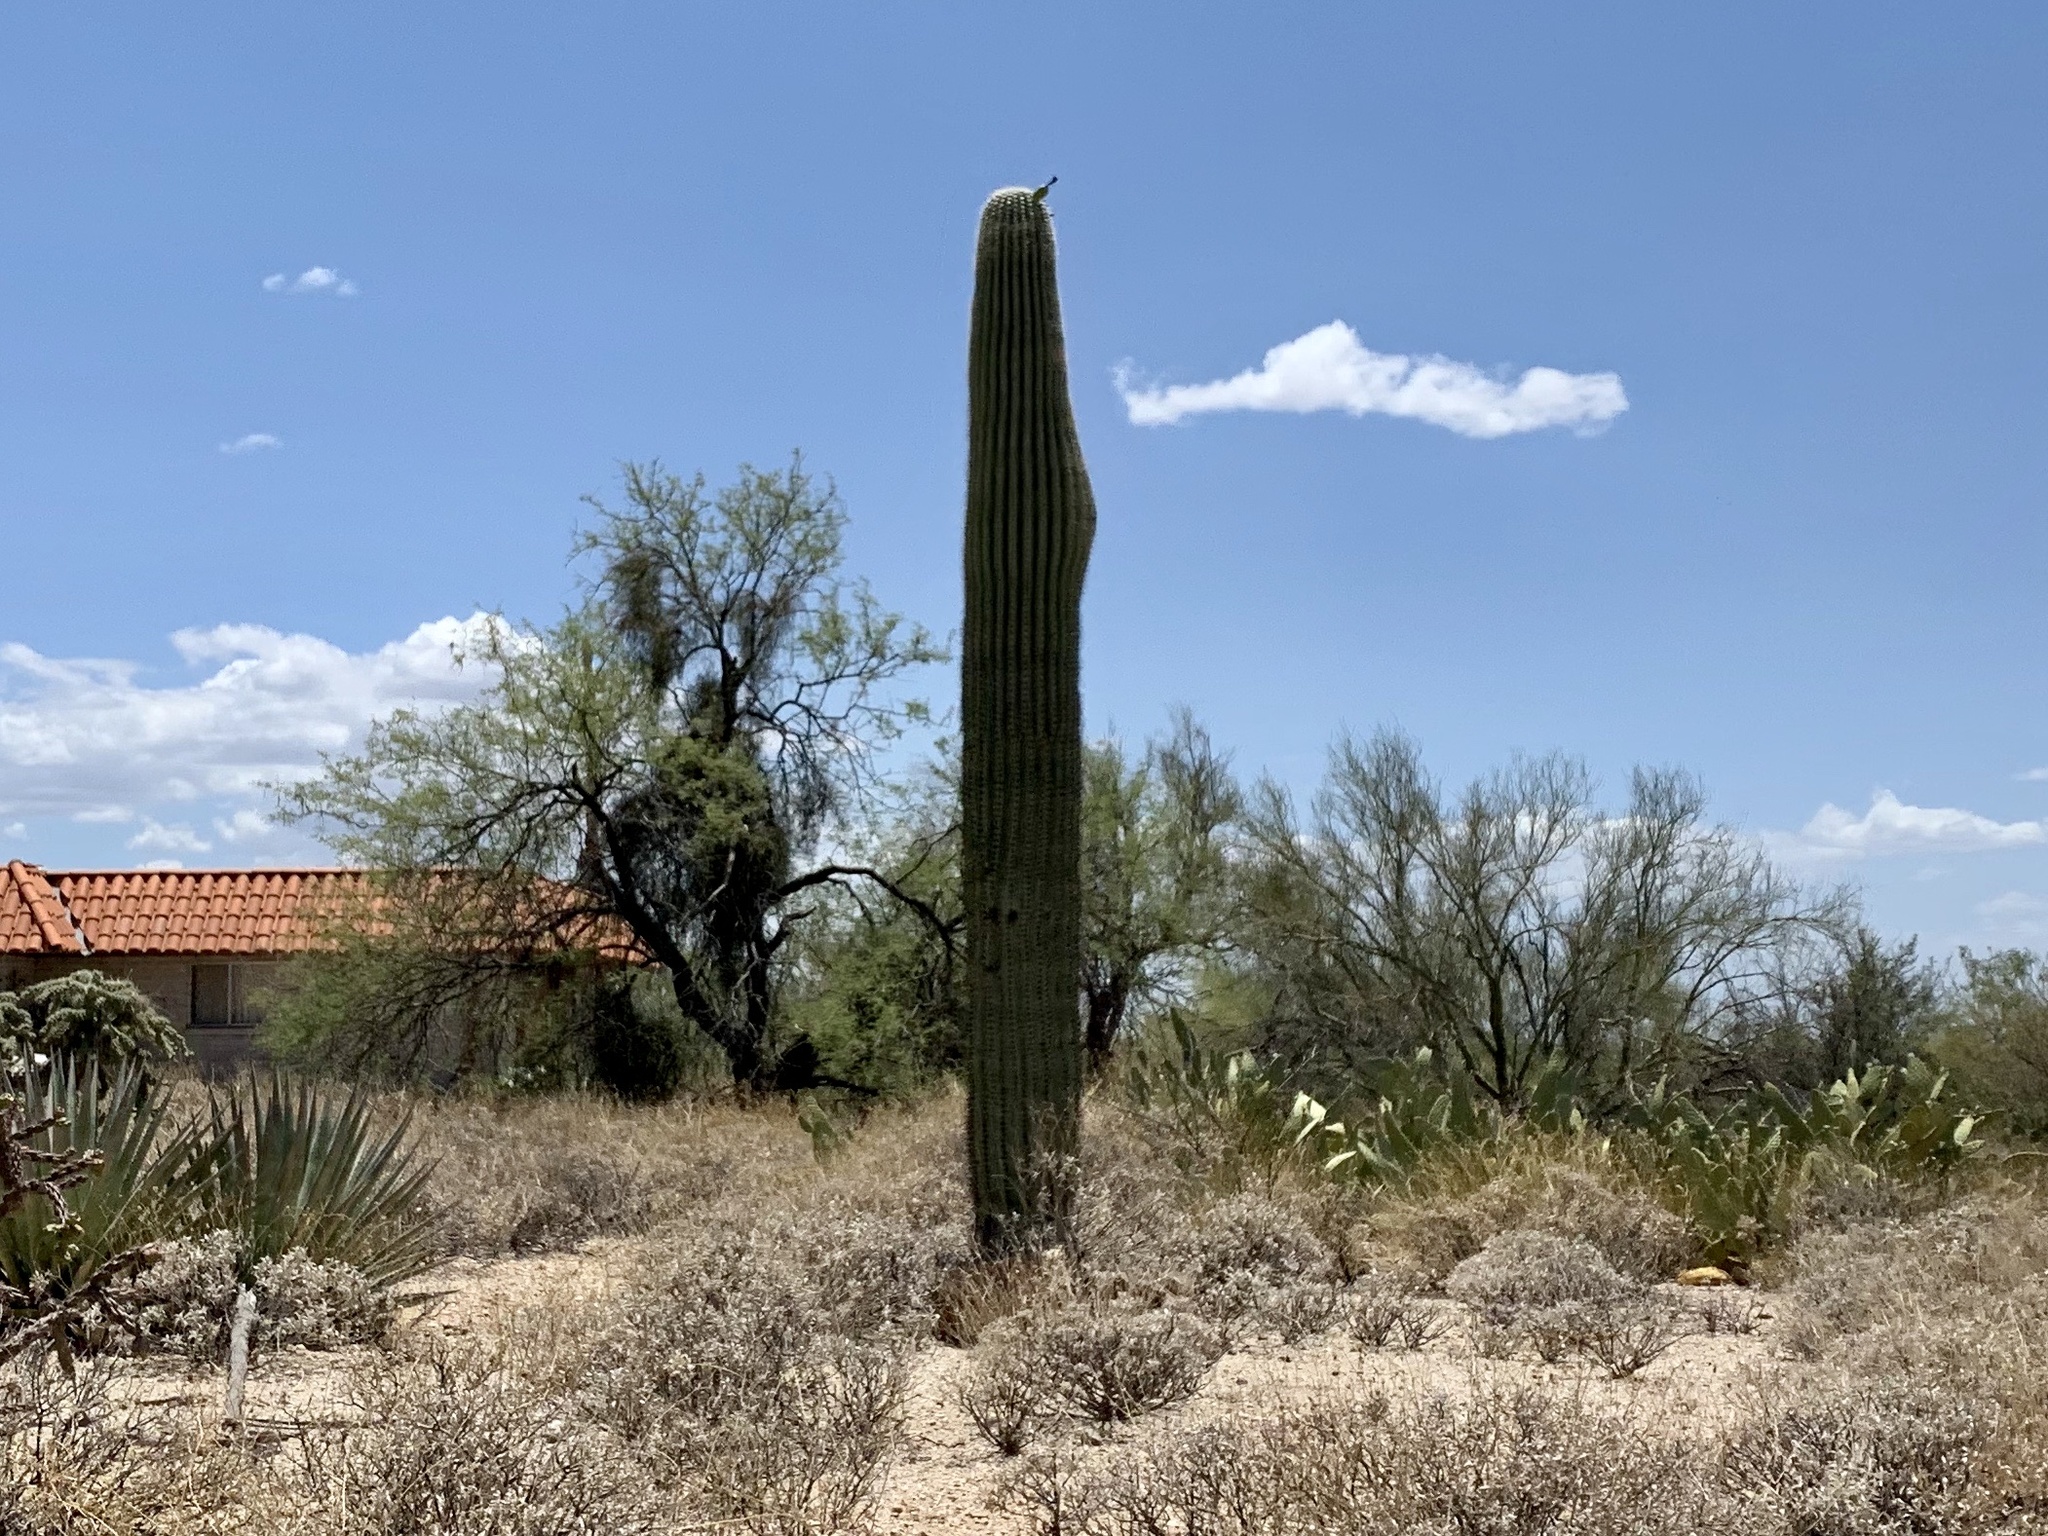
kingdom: Plantae
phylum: Tracheophyta
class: Magnoliopsida
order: Caryophyllales
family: Cactaceae
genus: Carnegiea
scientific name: Carnegiea gigantea
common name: Saguaro
